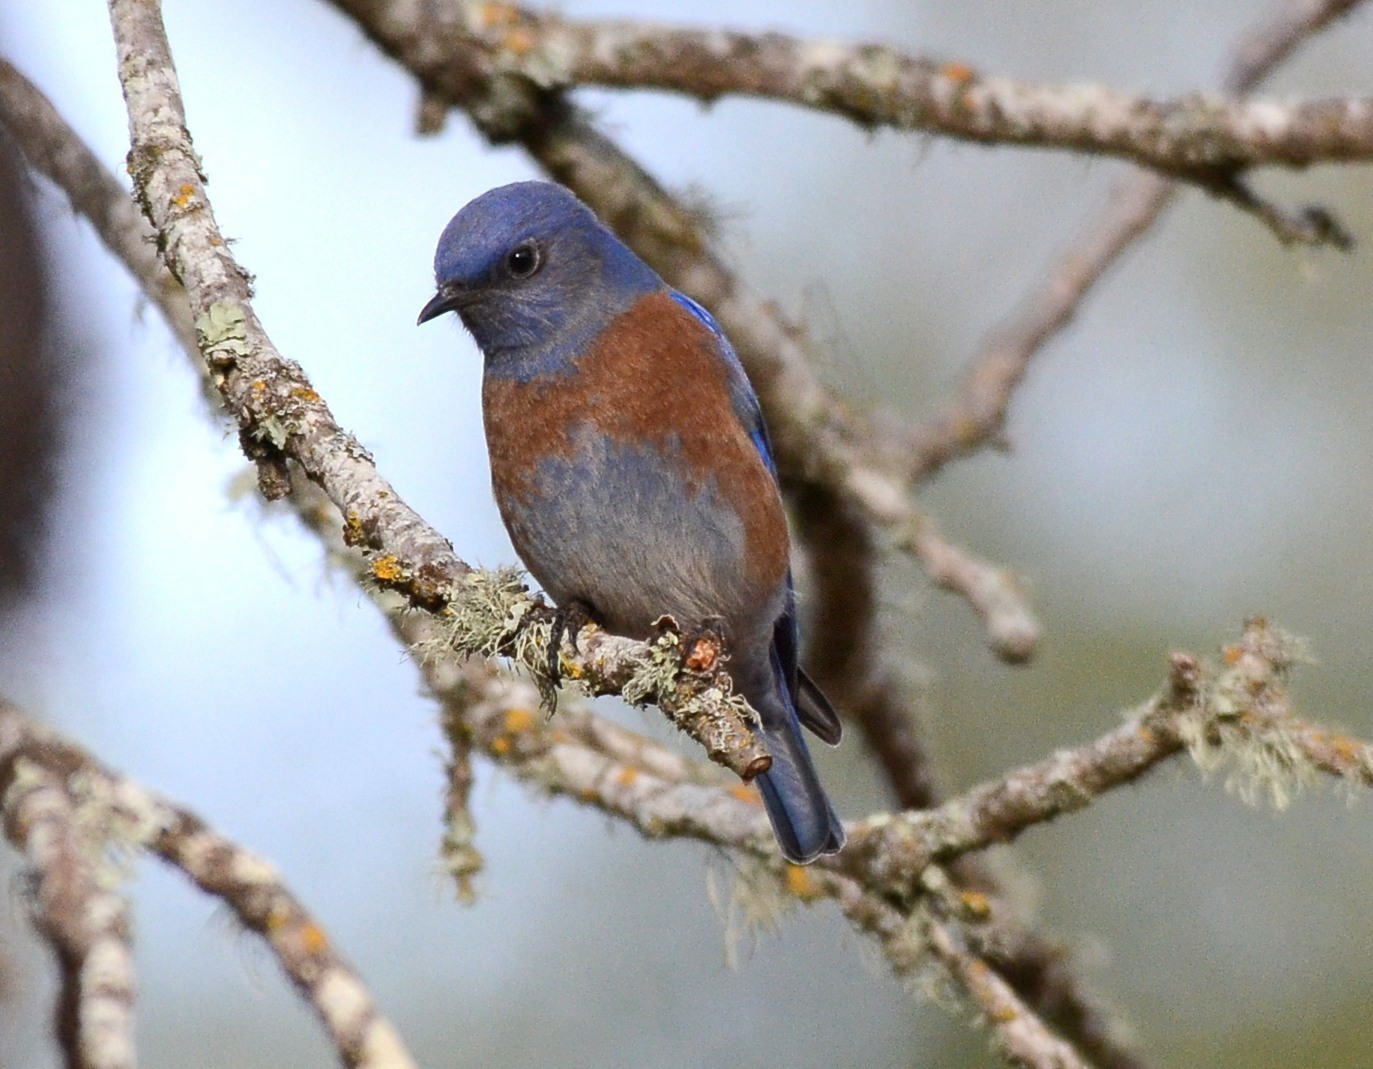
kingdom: Animalia
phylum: Chordata
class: Aves
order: Passeriformes
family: Turdidae
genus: Sialia
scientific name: Sialia mexicana
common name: Western bluebird
